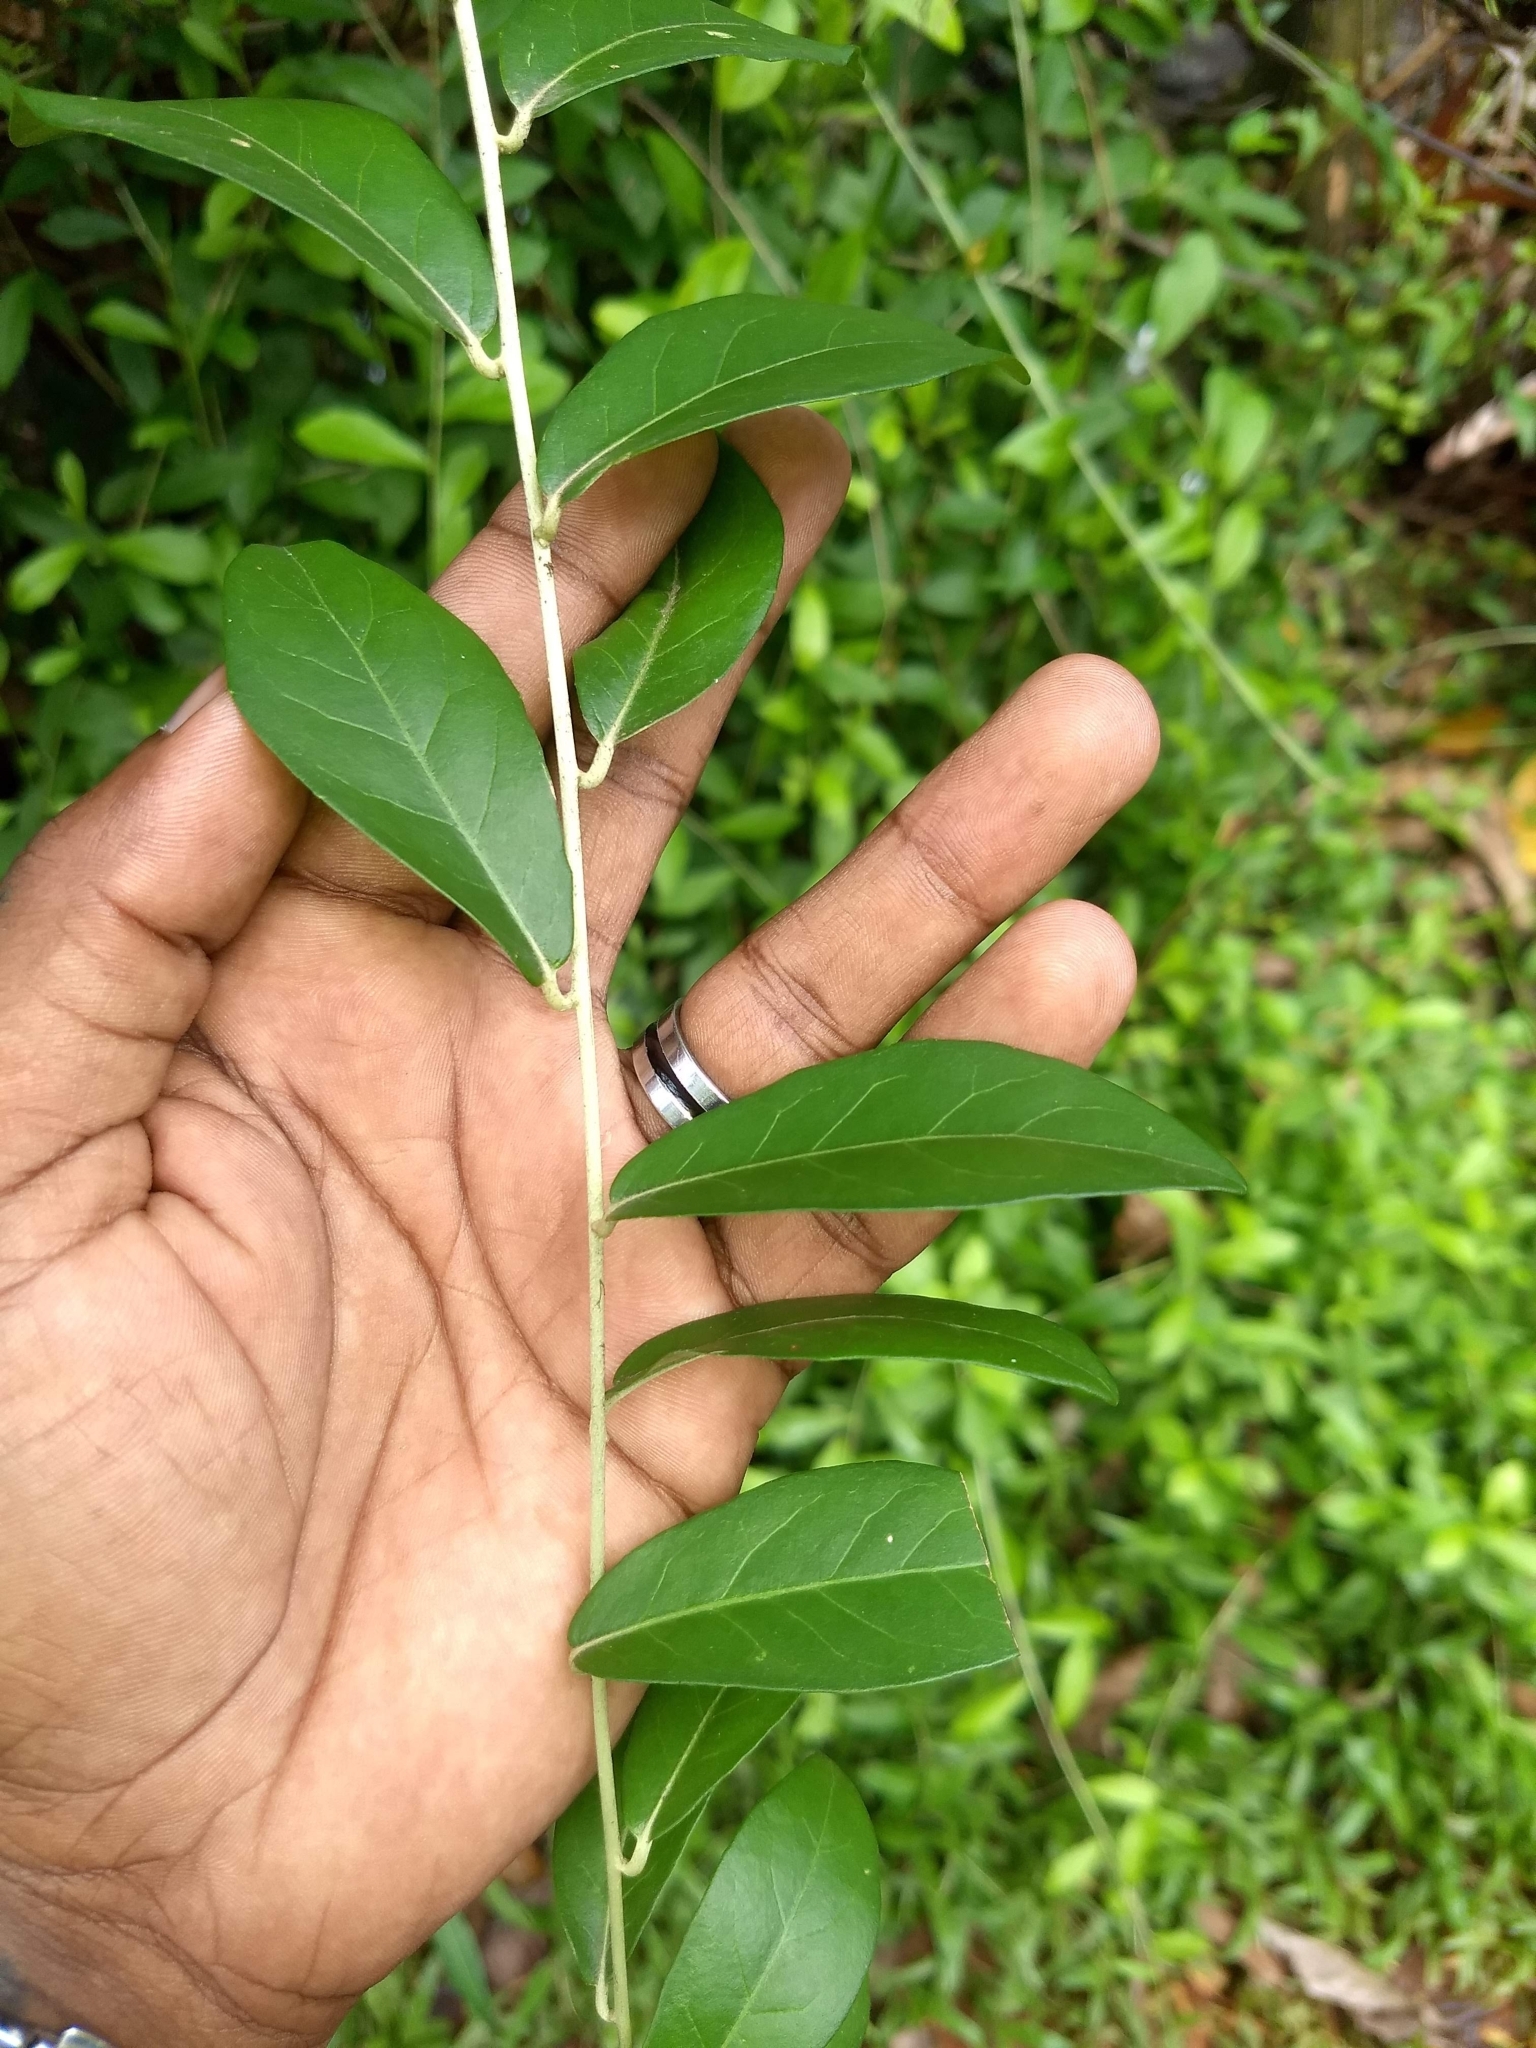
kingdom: Plantae
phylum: Tracheophyta
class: Magnoliopsida
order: Asterales
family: Asteraceae
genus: Tarlmounia
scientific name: Tarlmounia elliptica
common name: Kheua sa lot
